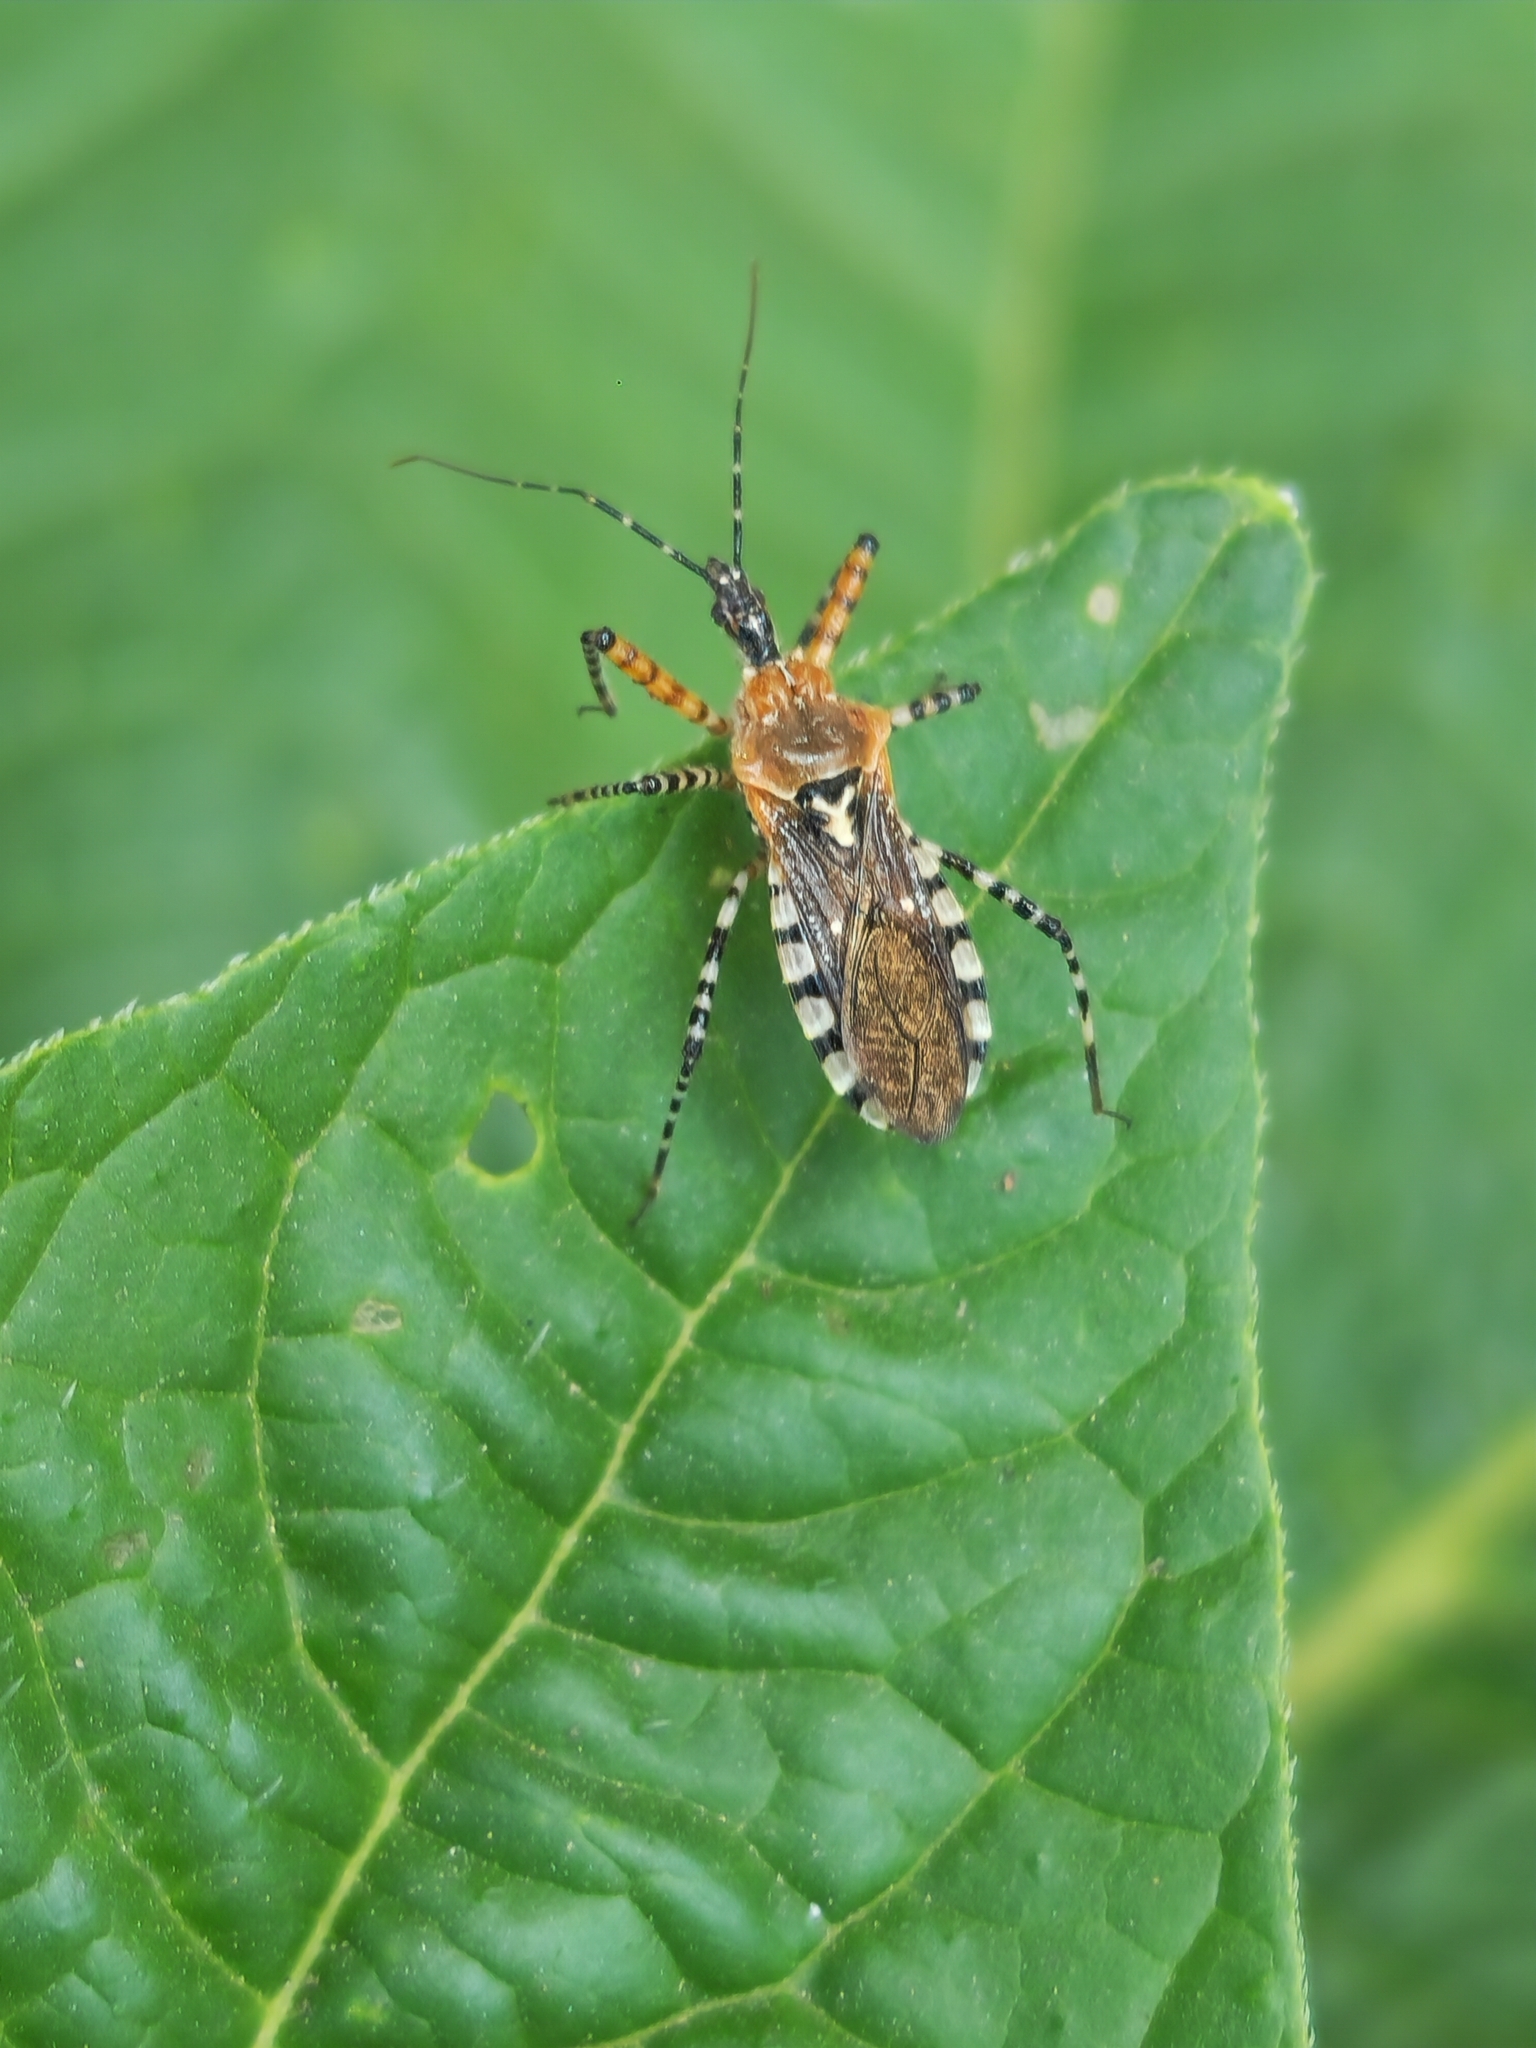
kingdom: Animalia
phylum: Arthropoda
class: Insecta
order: Hemiptera
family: Reduviidae
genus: Cosmoclopius
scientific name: Cosmoclopius nigroannulatus
